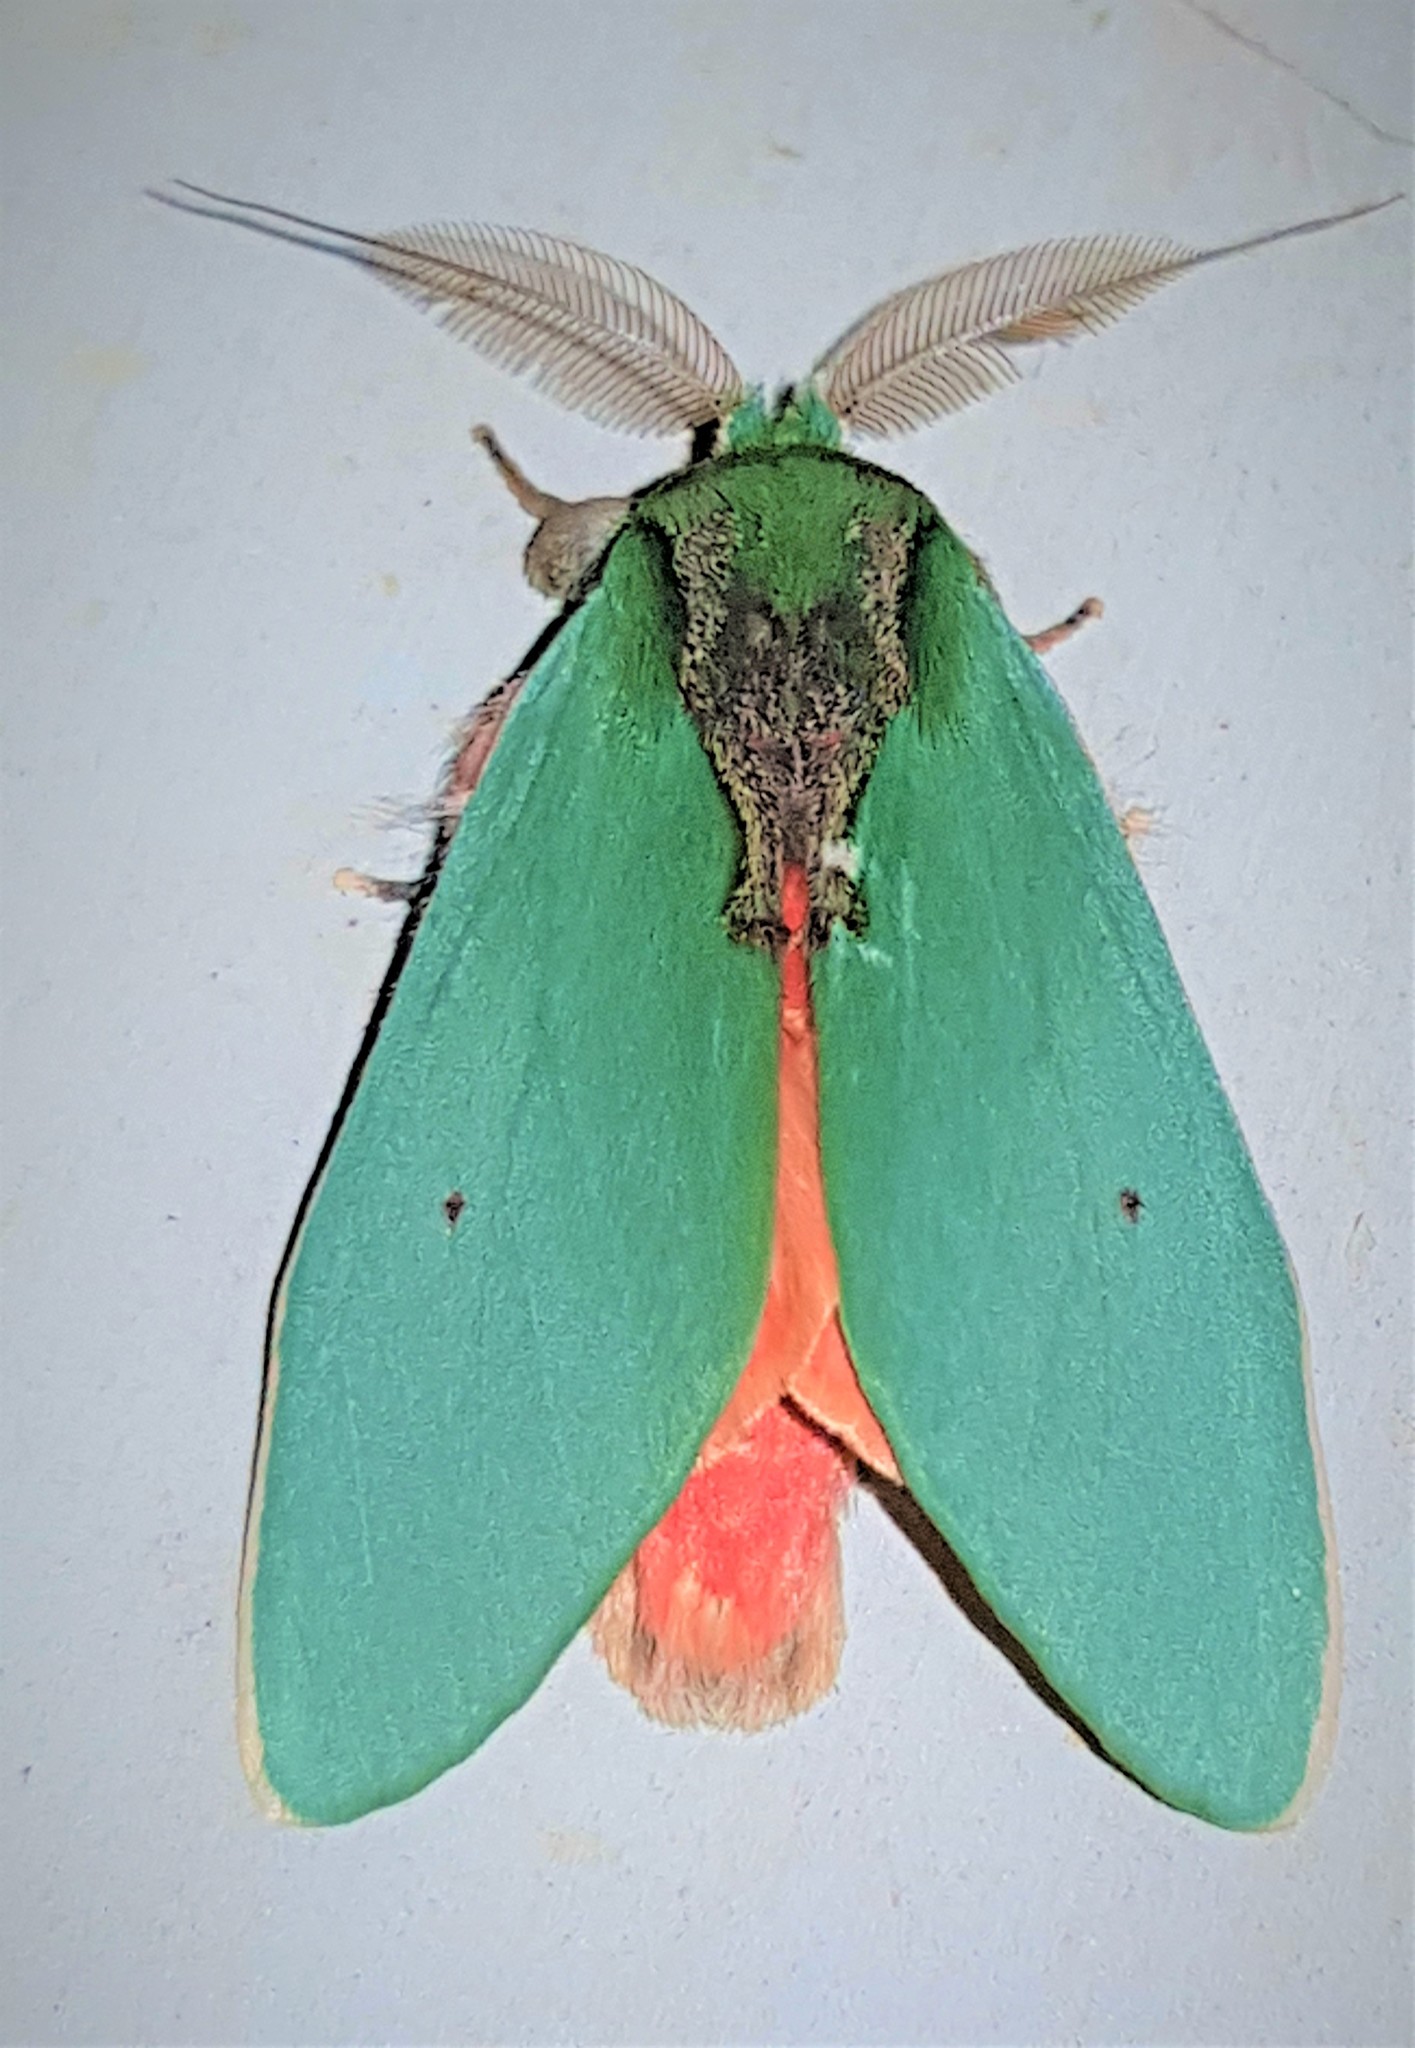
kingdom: Animalia
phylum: Arthropoda
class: Insecta
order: Lepidoptera
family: Notodontidae
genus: Rosema
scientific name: Rosema myops
